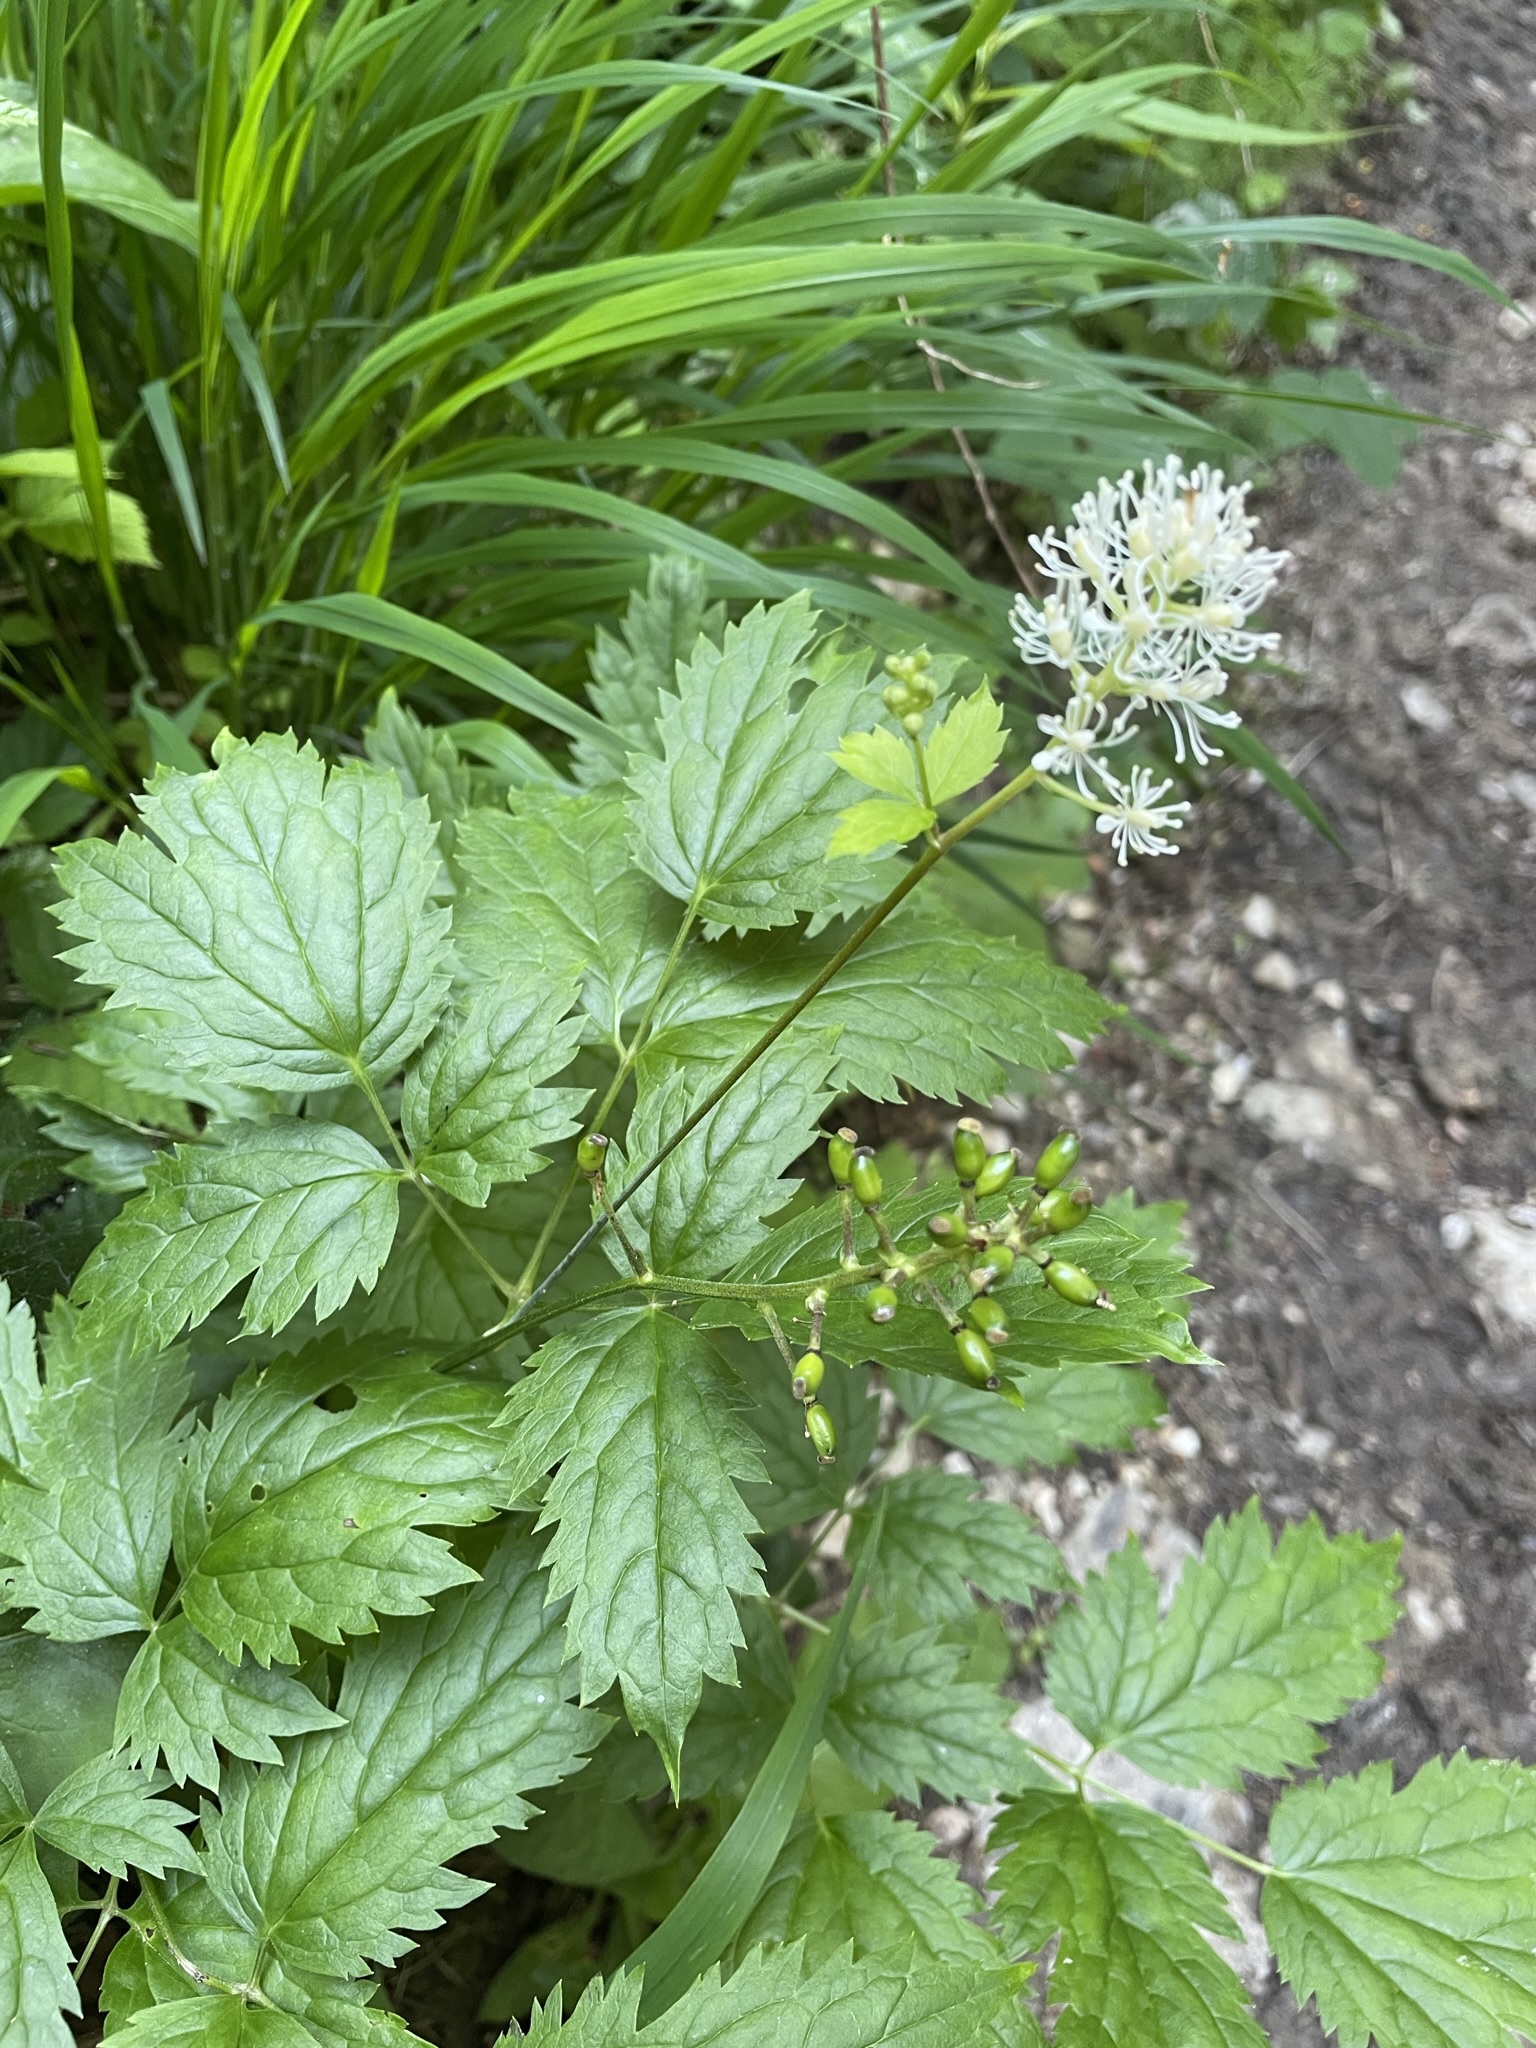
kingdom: Plantae
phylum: Tracheophyta
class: Magnoliopsida
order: Ranunculales
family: Ranunculaceae
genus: Actaea
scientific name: Actaea spicata
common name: Baneberry
